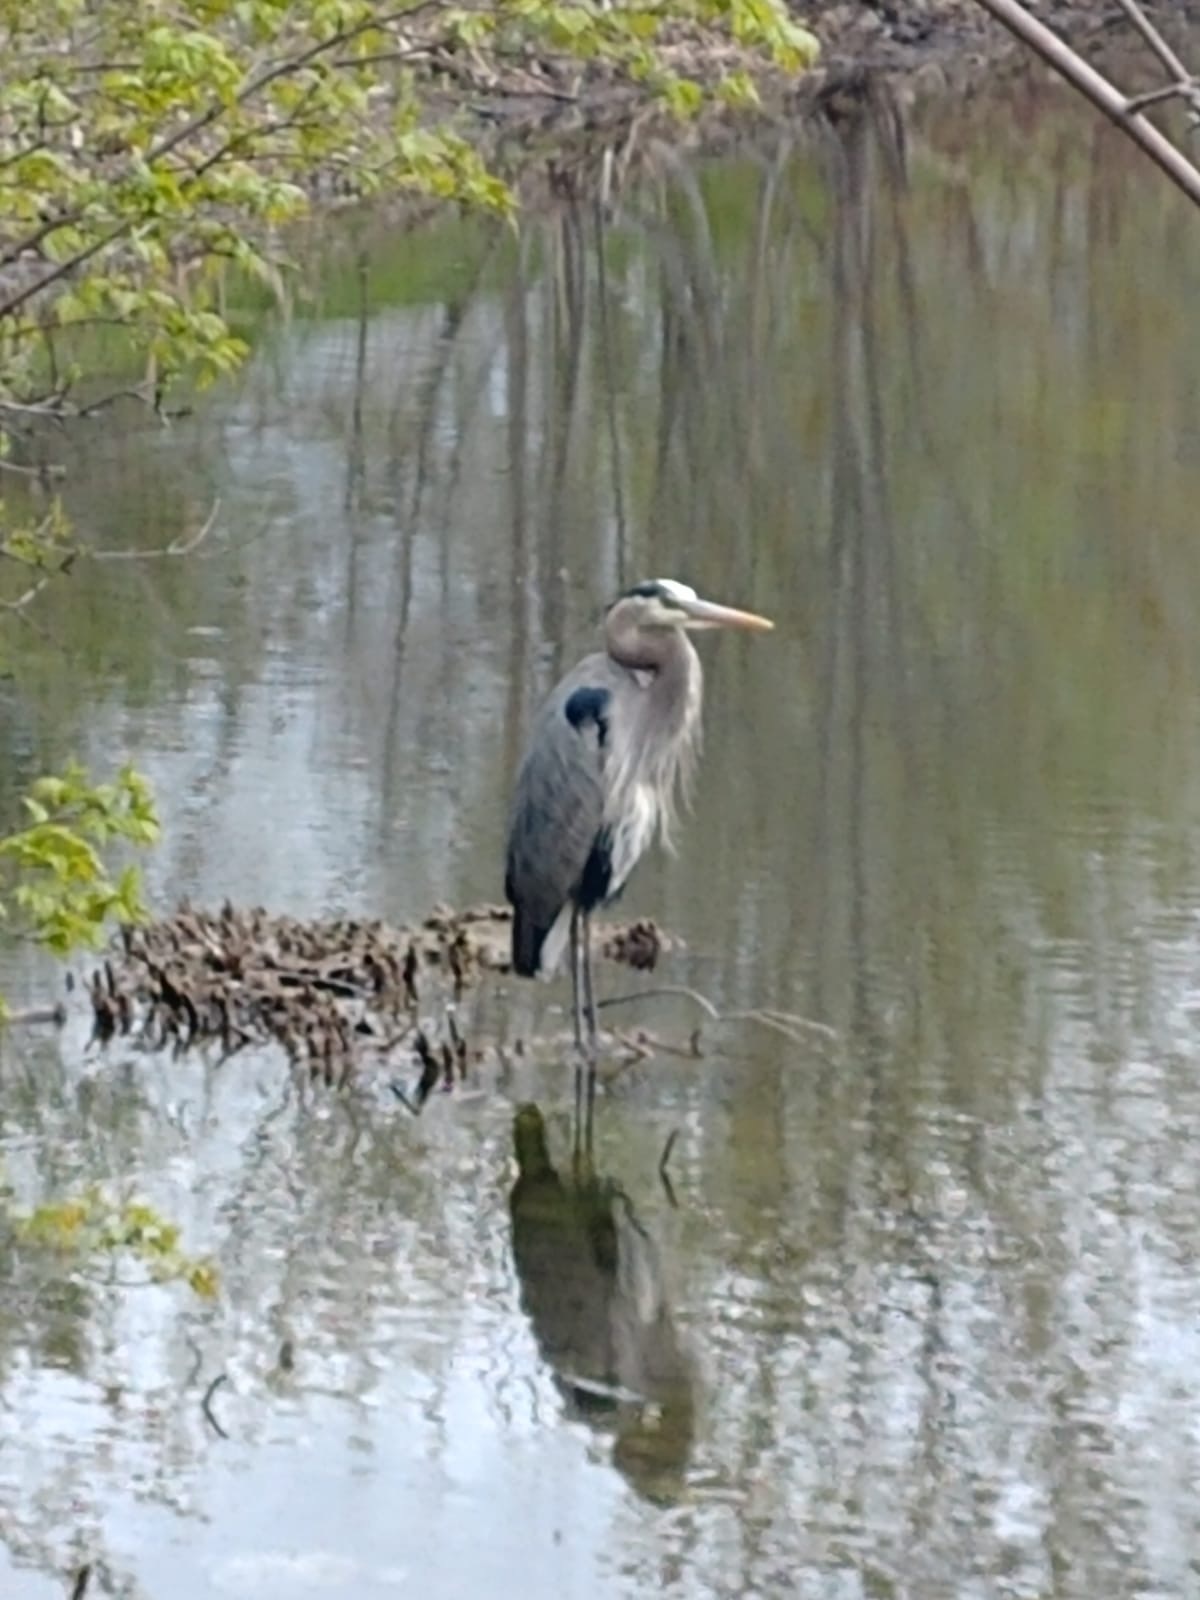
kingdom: Animalia
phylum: Chordata
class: Aves
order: Pelecaniformes
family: Ardeidae
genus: Ardea
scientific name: Ardea herodias
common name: Great blue heron
